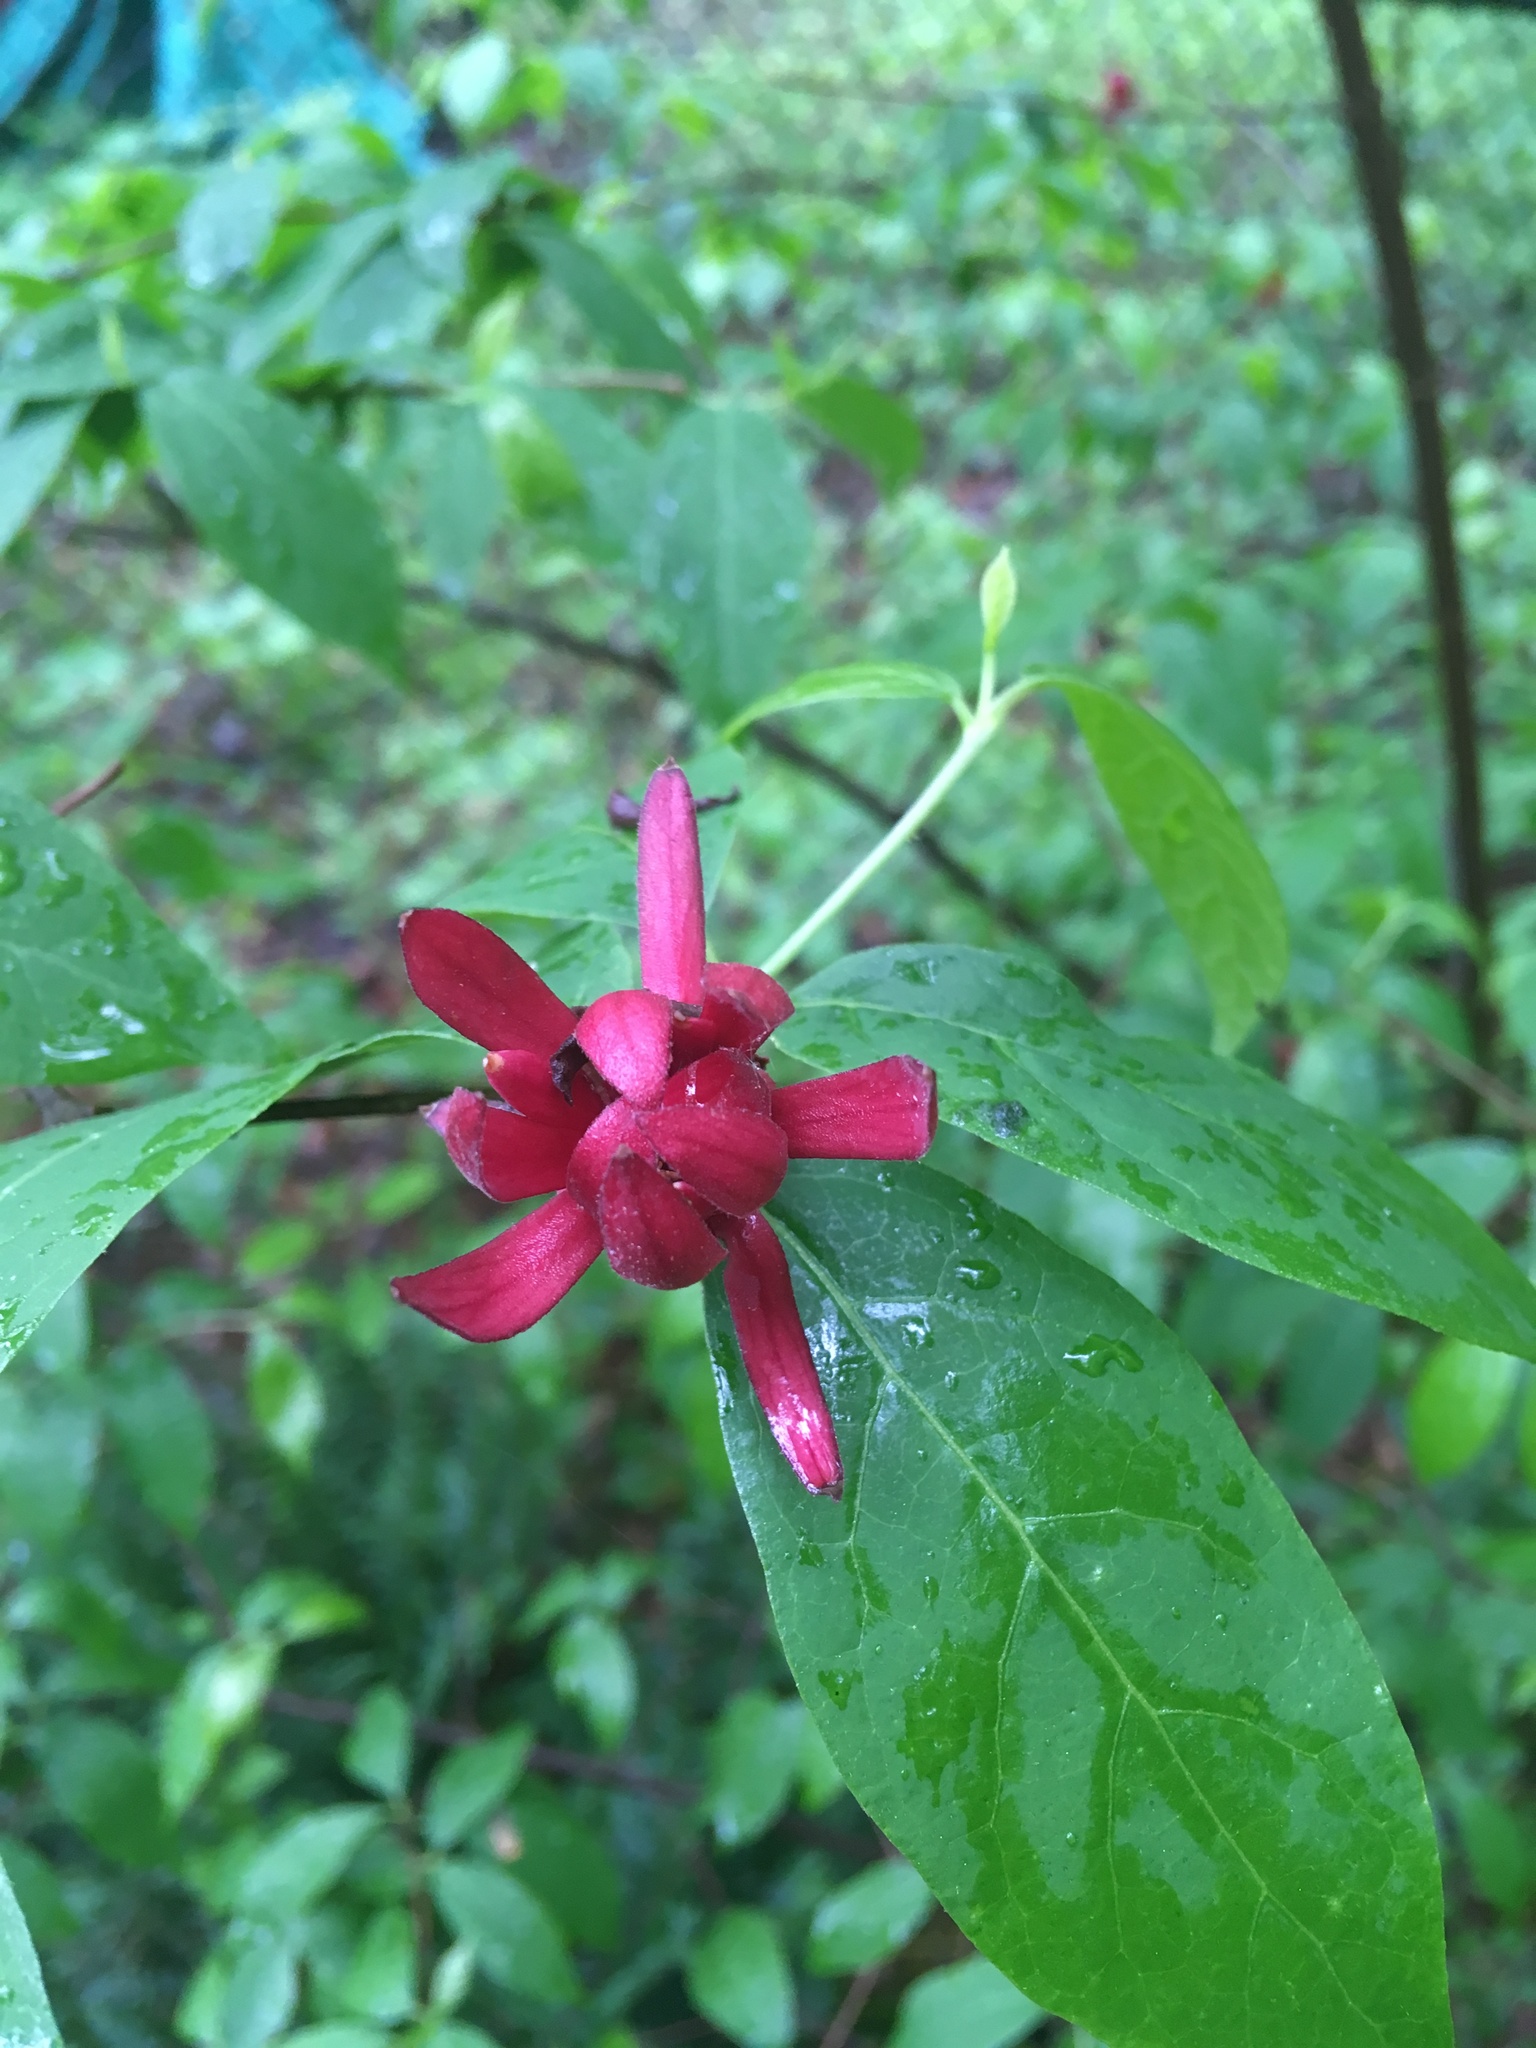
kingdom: Plantae
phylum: Tracheophyta
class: Magnoliopsida
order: Laurales
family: Calycanthaceae
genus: Calycanthus
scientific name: Calycanthus floridus
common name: Carolina-allspice
